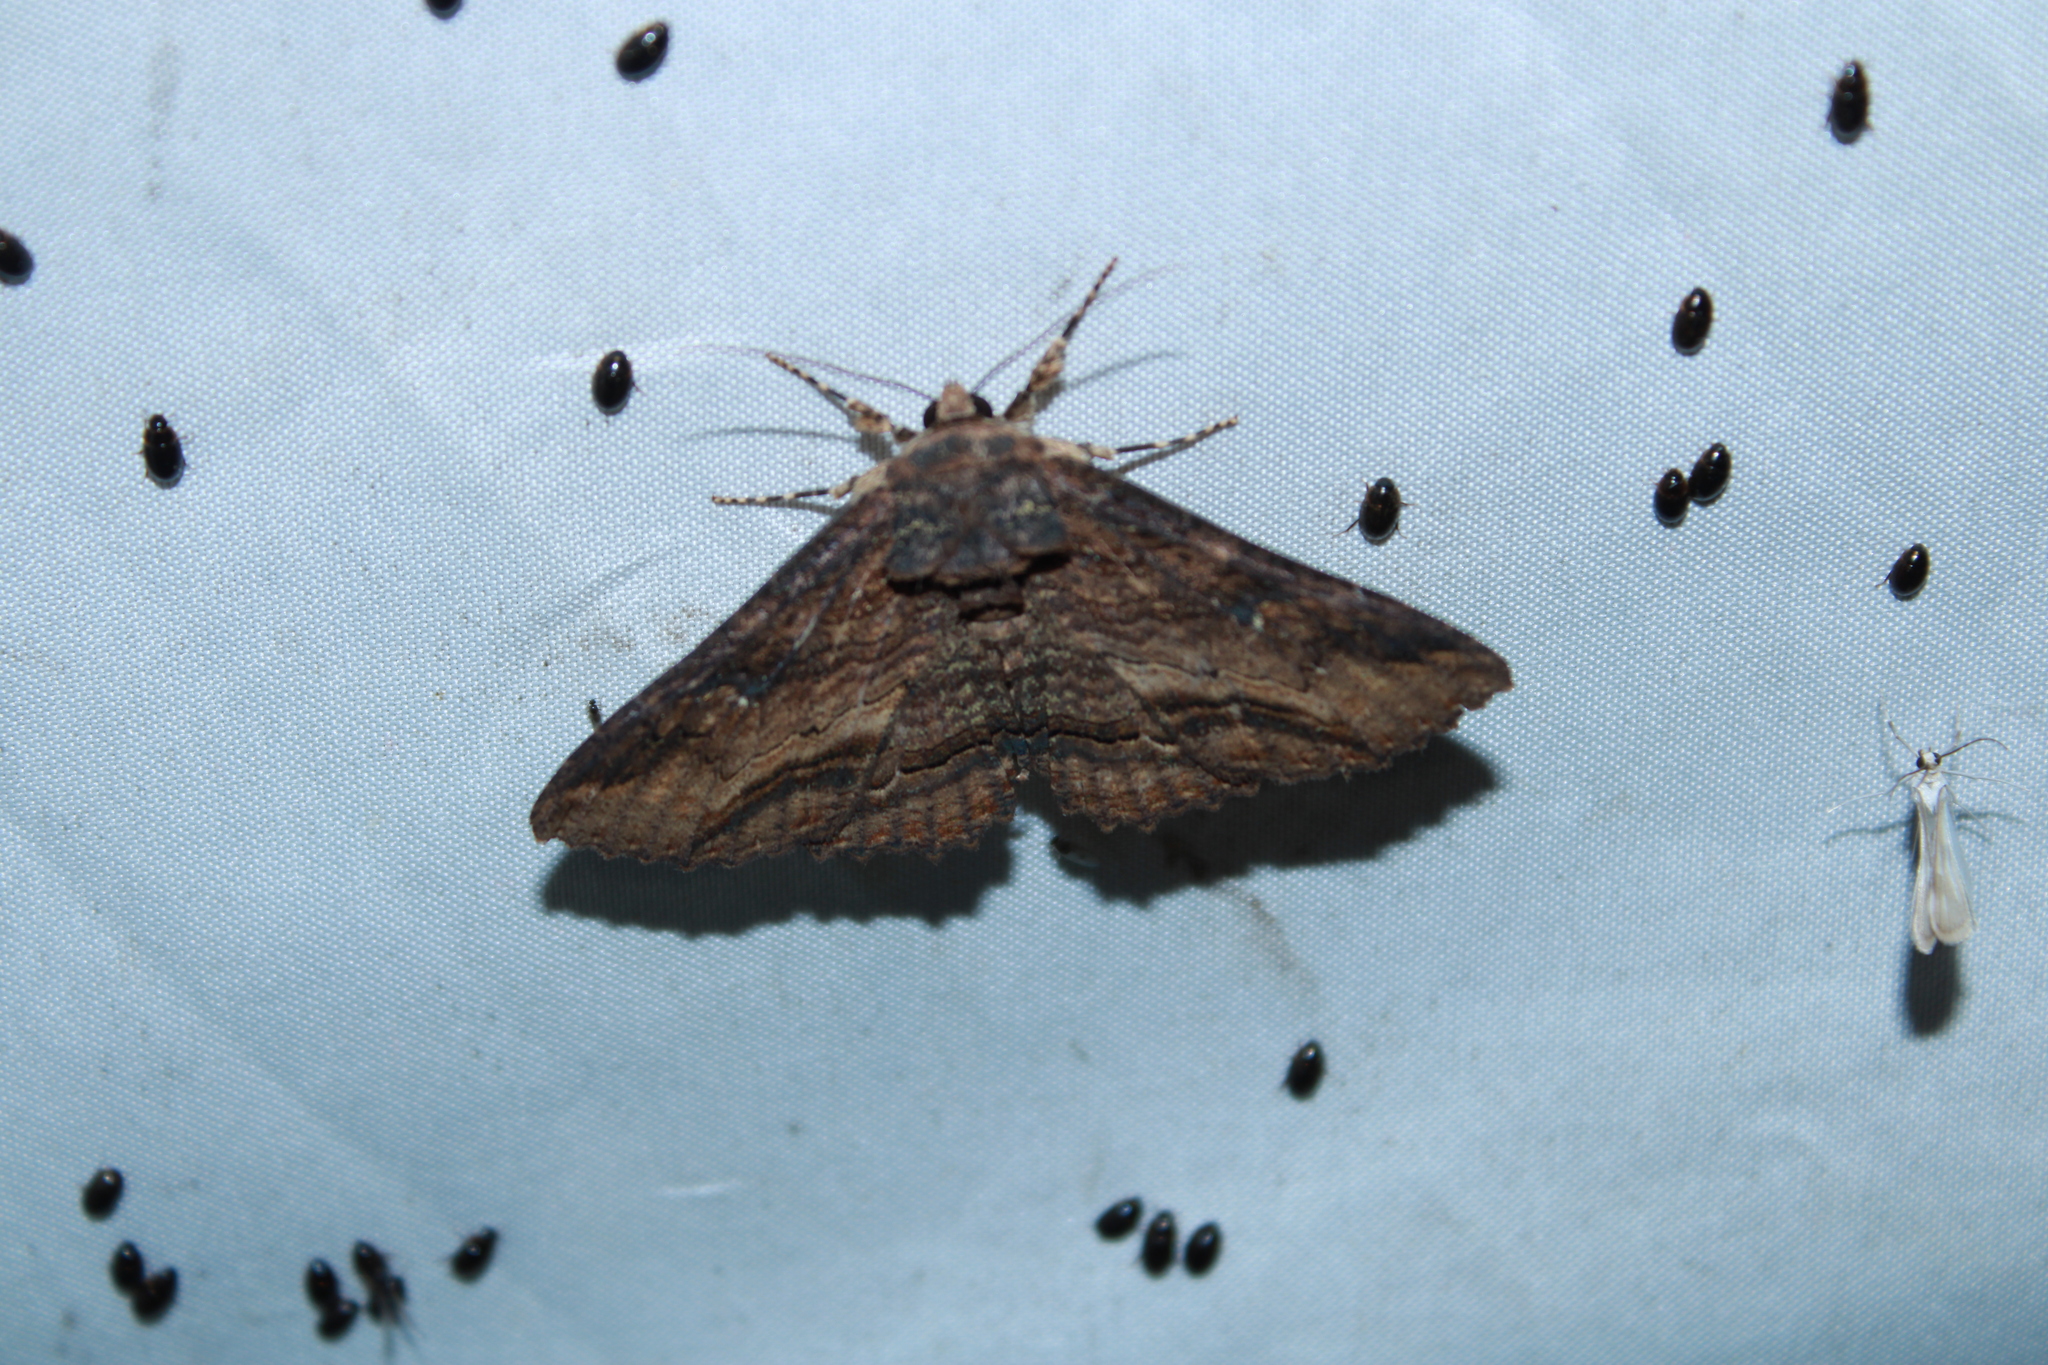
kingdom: Animalia
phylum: Arthropoda
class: Insecta
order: Lepidoptera
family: Erebidae
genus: Zale
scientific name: Zale lunata
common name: Lunate zale moth
